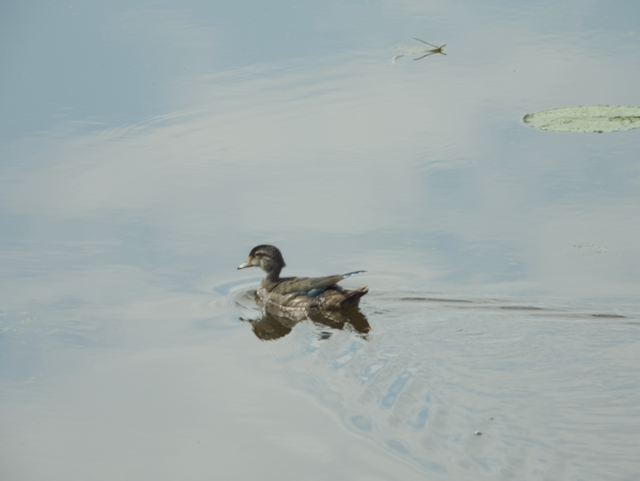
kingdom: Animalia
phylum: Chordata
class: Aves
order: Anseriformes
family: Anatidae
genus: Aix
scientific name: Aix sponsa
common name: Wood duck
